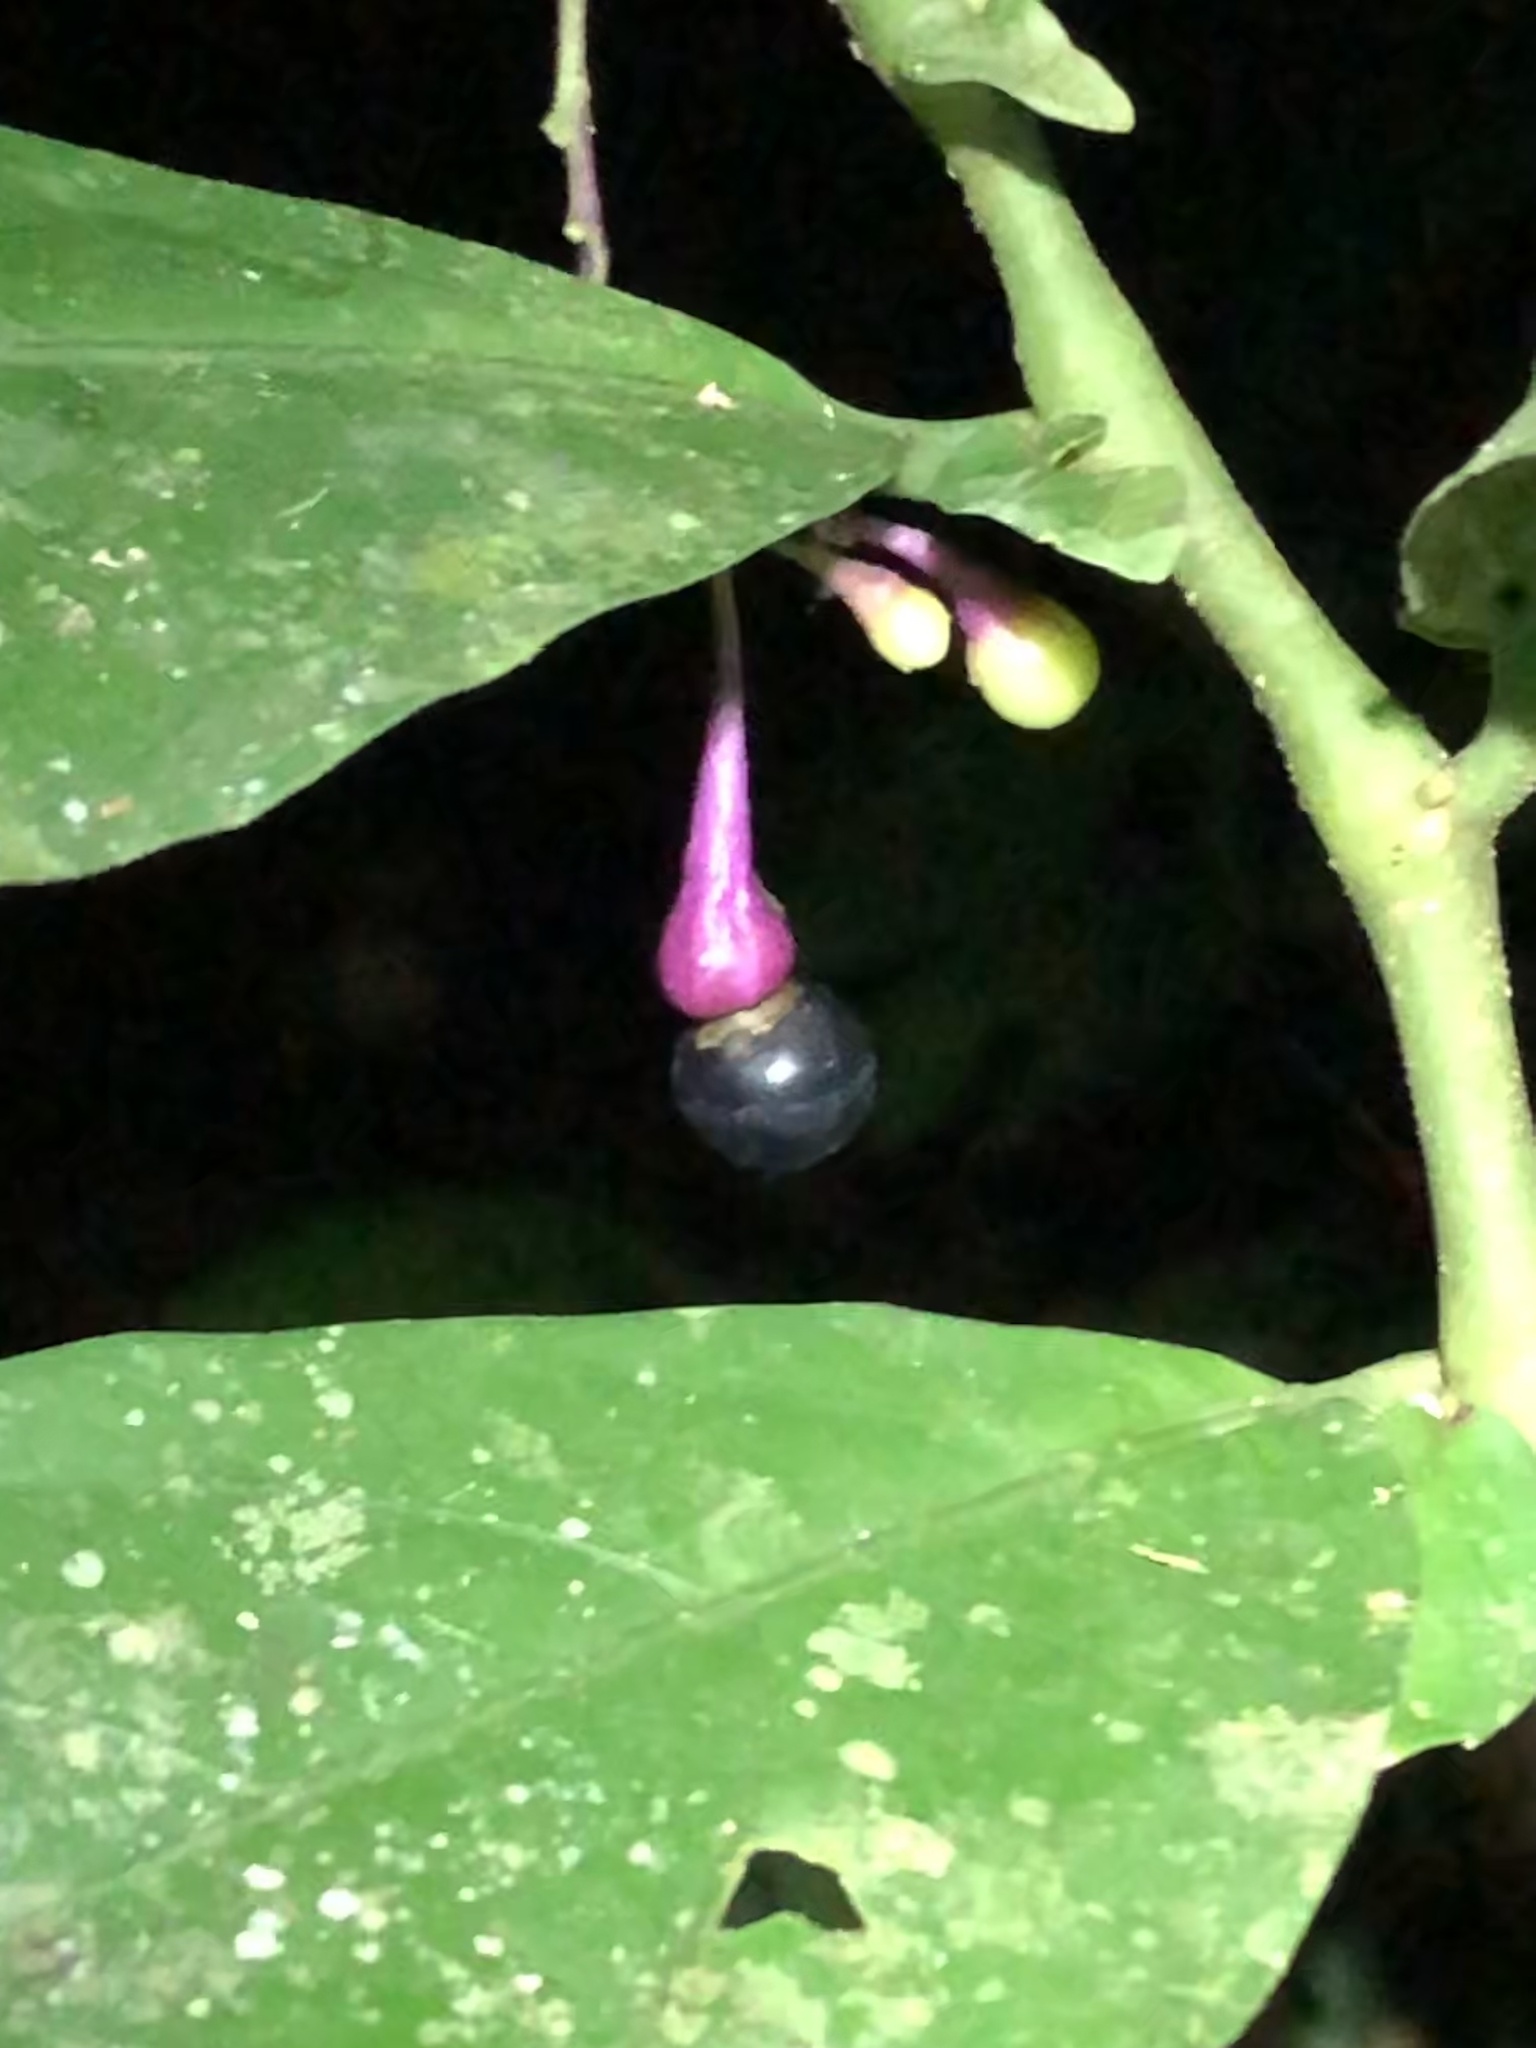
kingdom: Plantae
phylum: Tracheophyta
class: Magnoliopsida
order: Solanales
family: Solanaceae
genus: Cuatresia
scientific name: Cuatresia fosteriana
